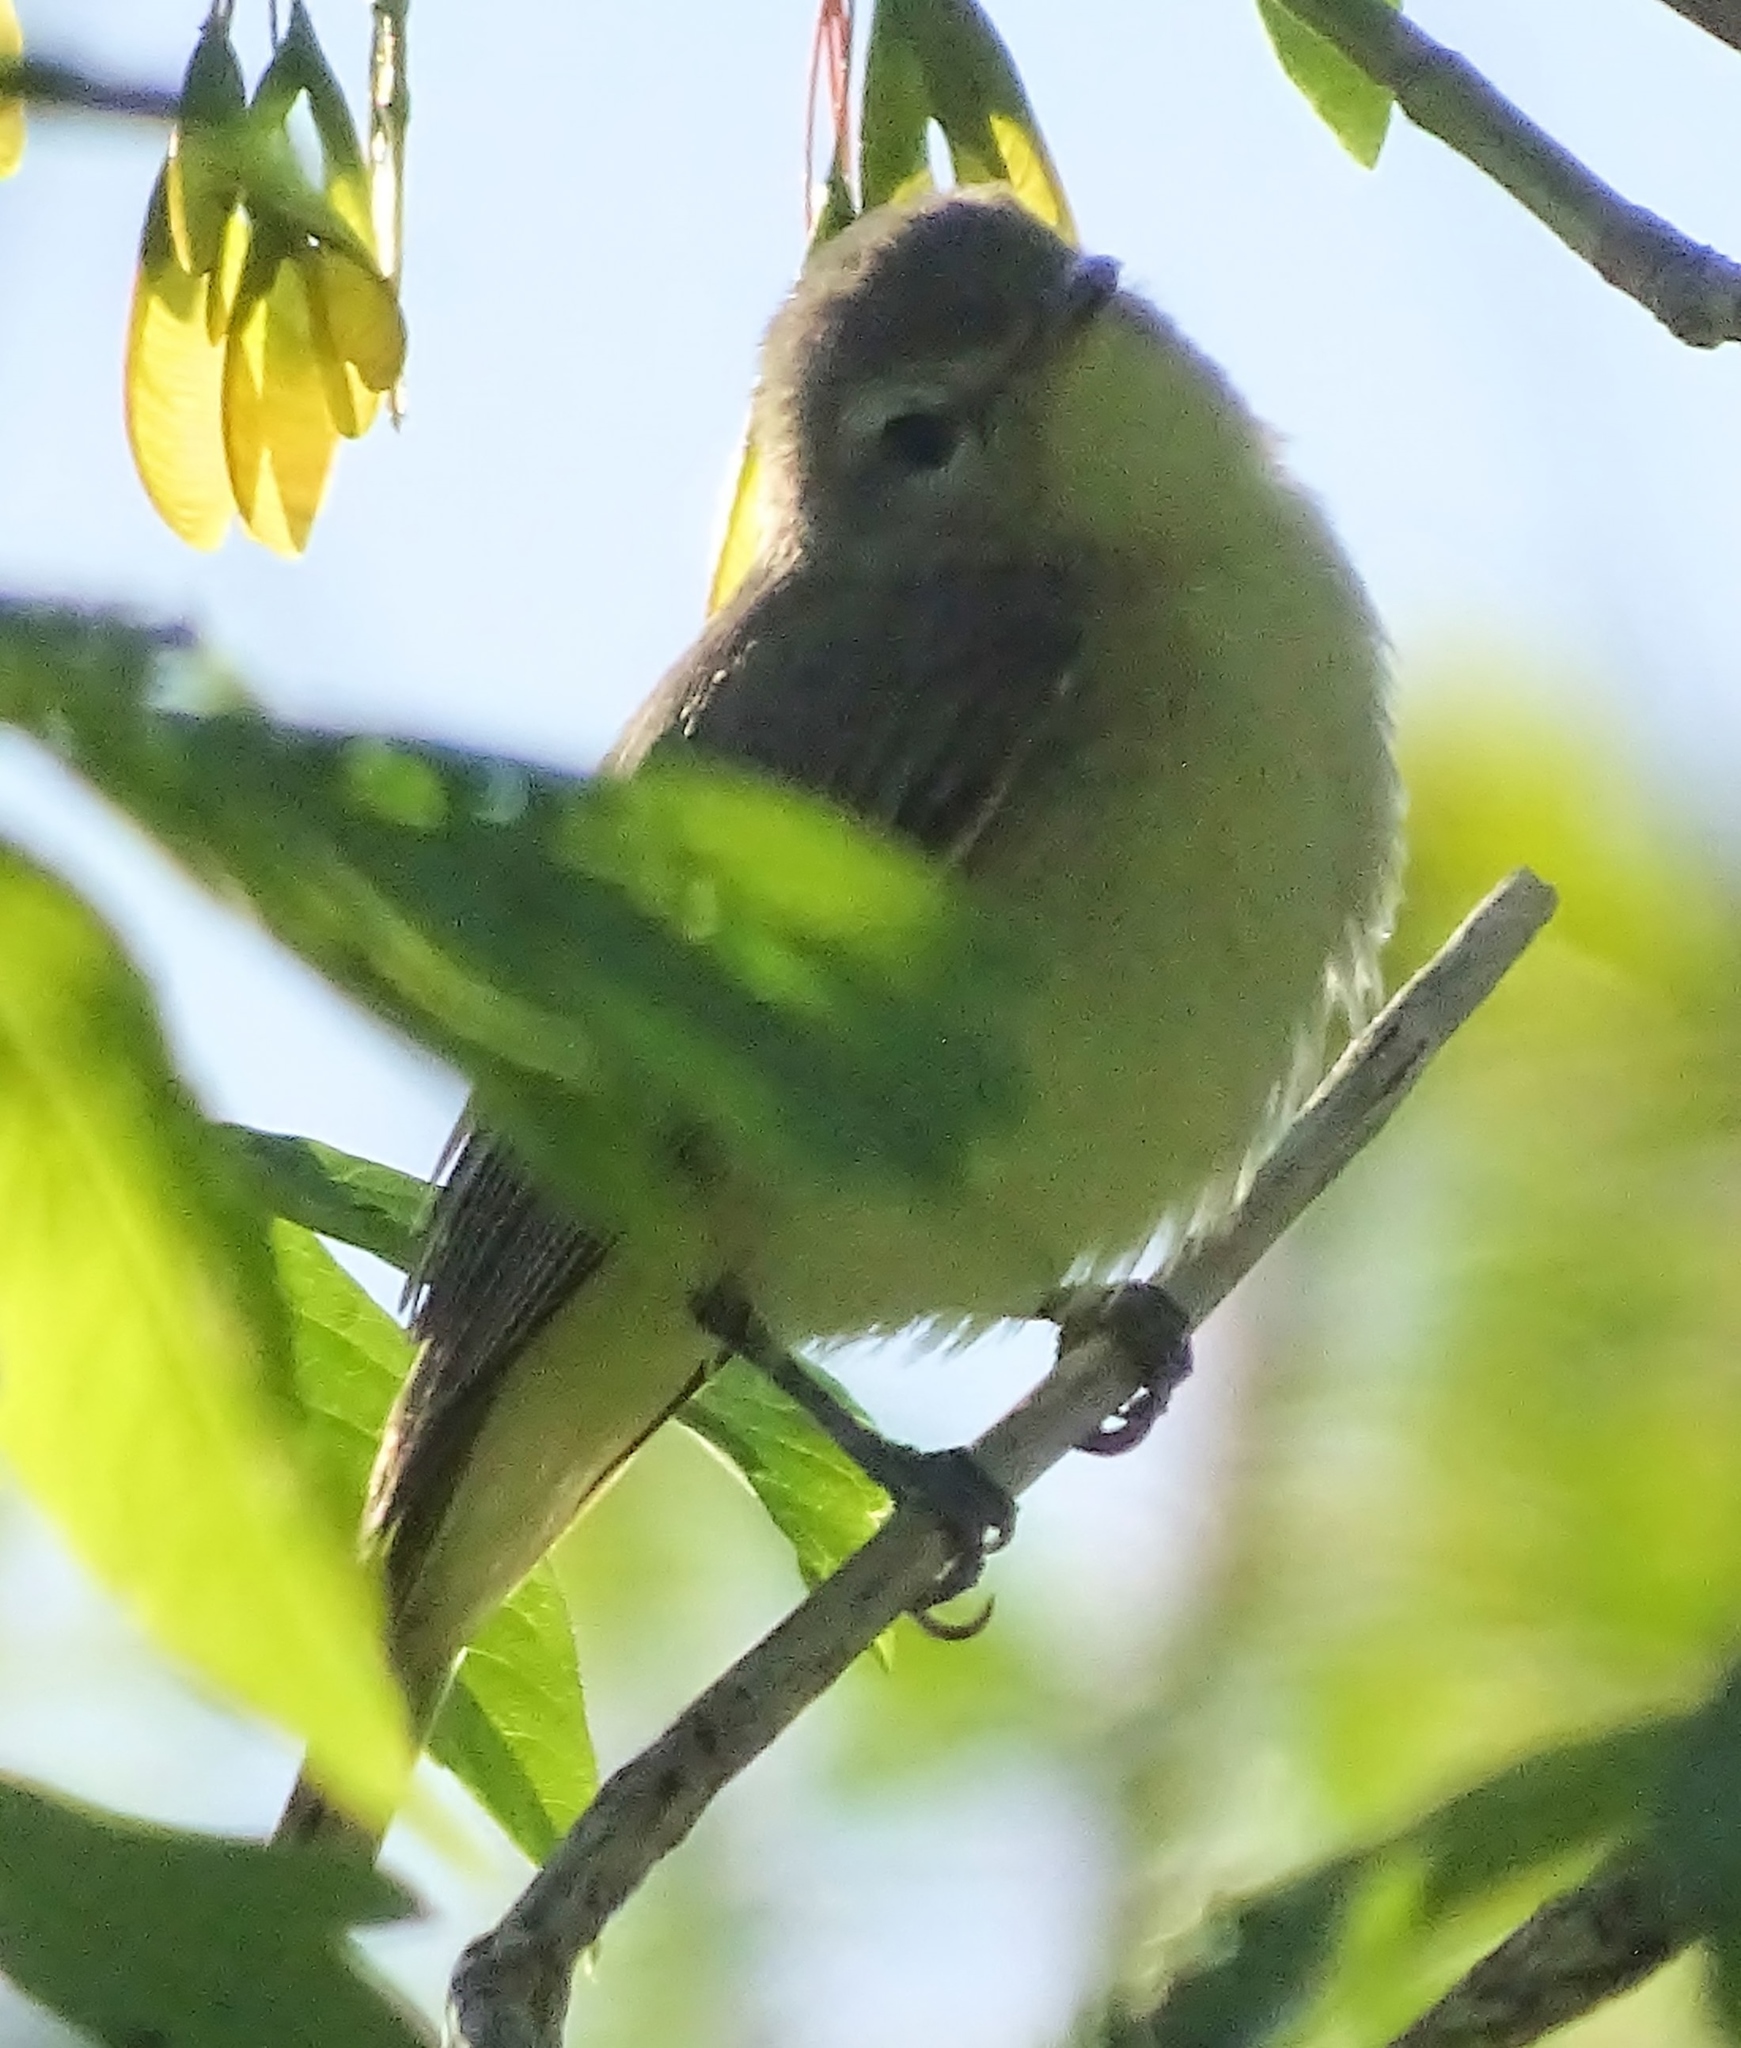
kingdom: Animalia
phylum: Chordata
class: Aves
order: Passeriformes
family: Vireonidae
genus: Vireo
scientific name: Vireo gilvus
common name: Warbling vireo
